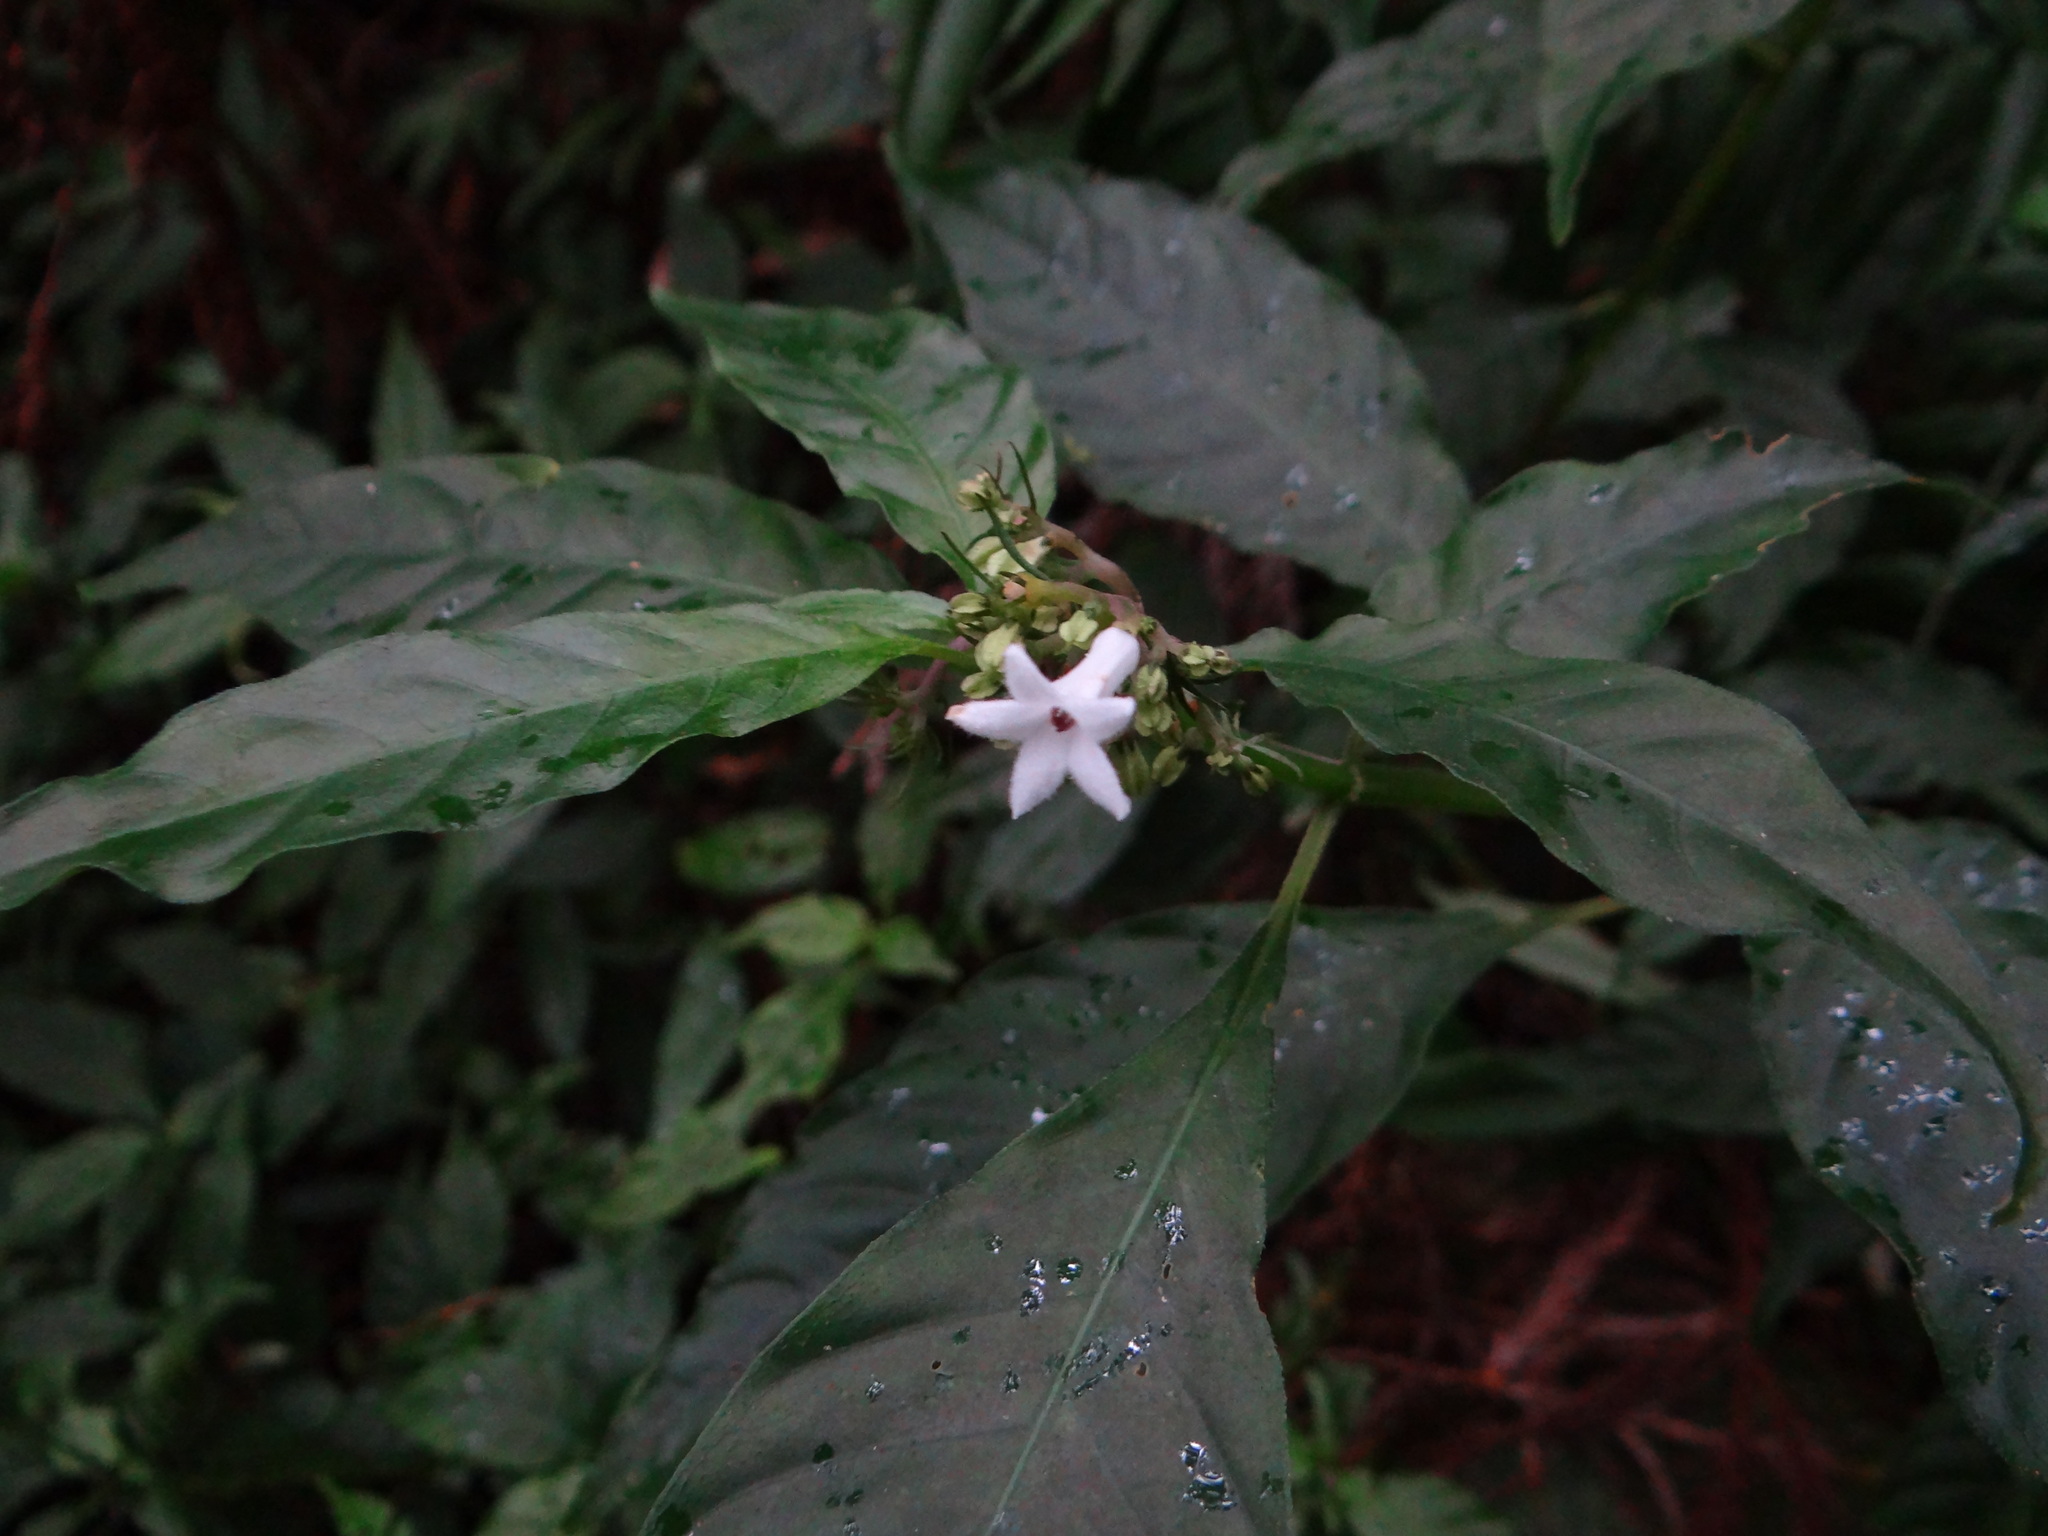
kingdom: Plantae
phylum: Tracheophyta
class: Magnoliopsida
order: Gentianales
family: Rubiaceae
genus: Ophiorrhiza
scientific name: Ophiorrhiza japonica
